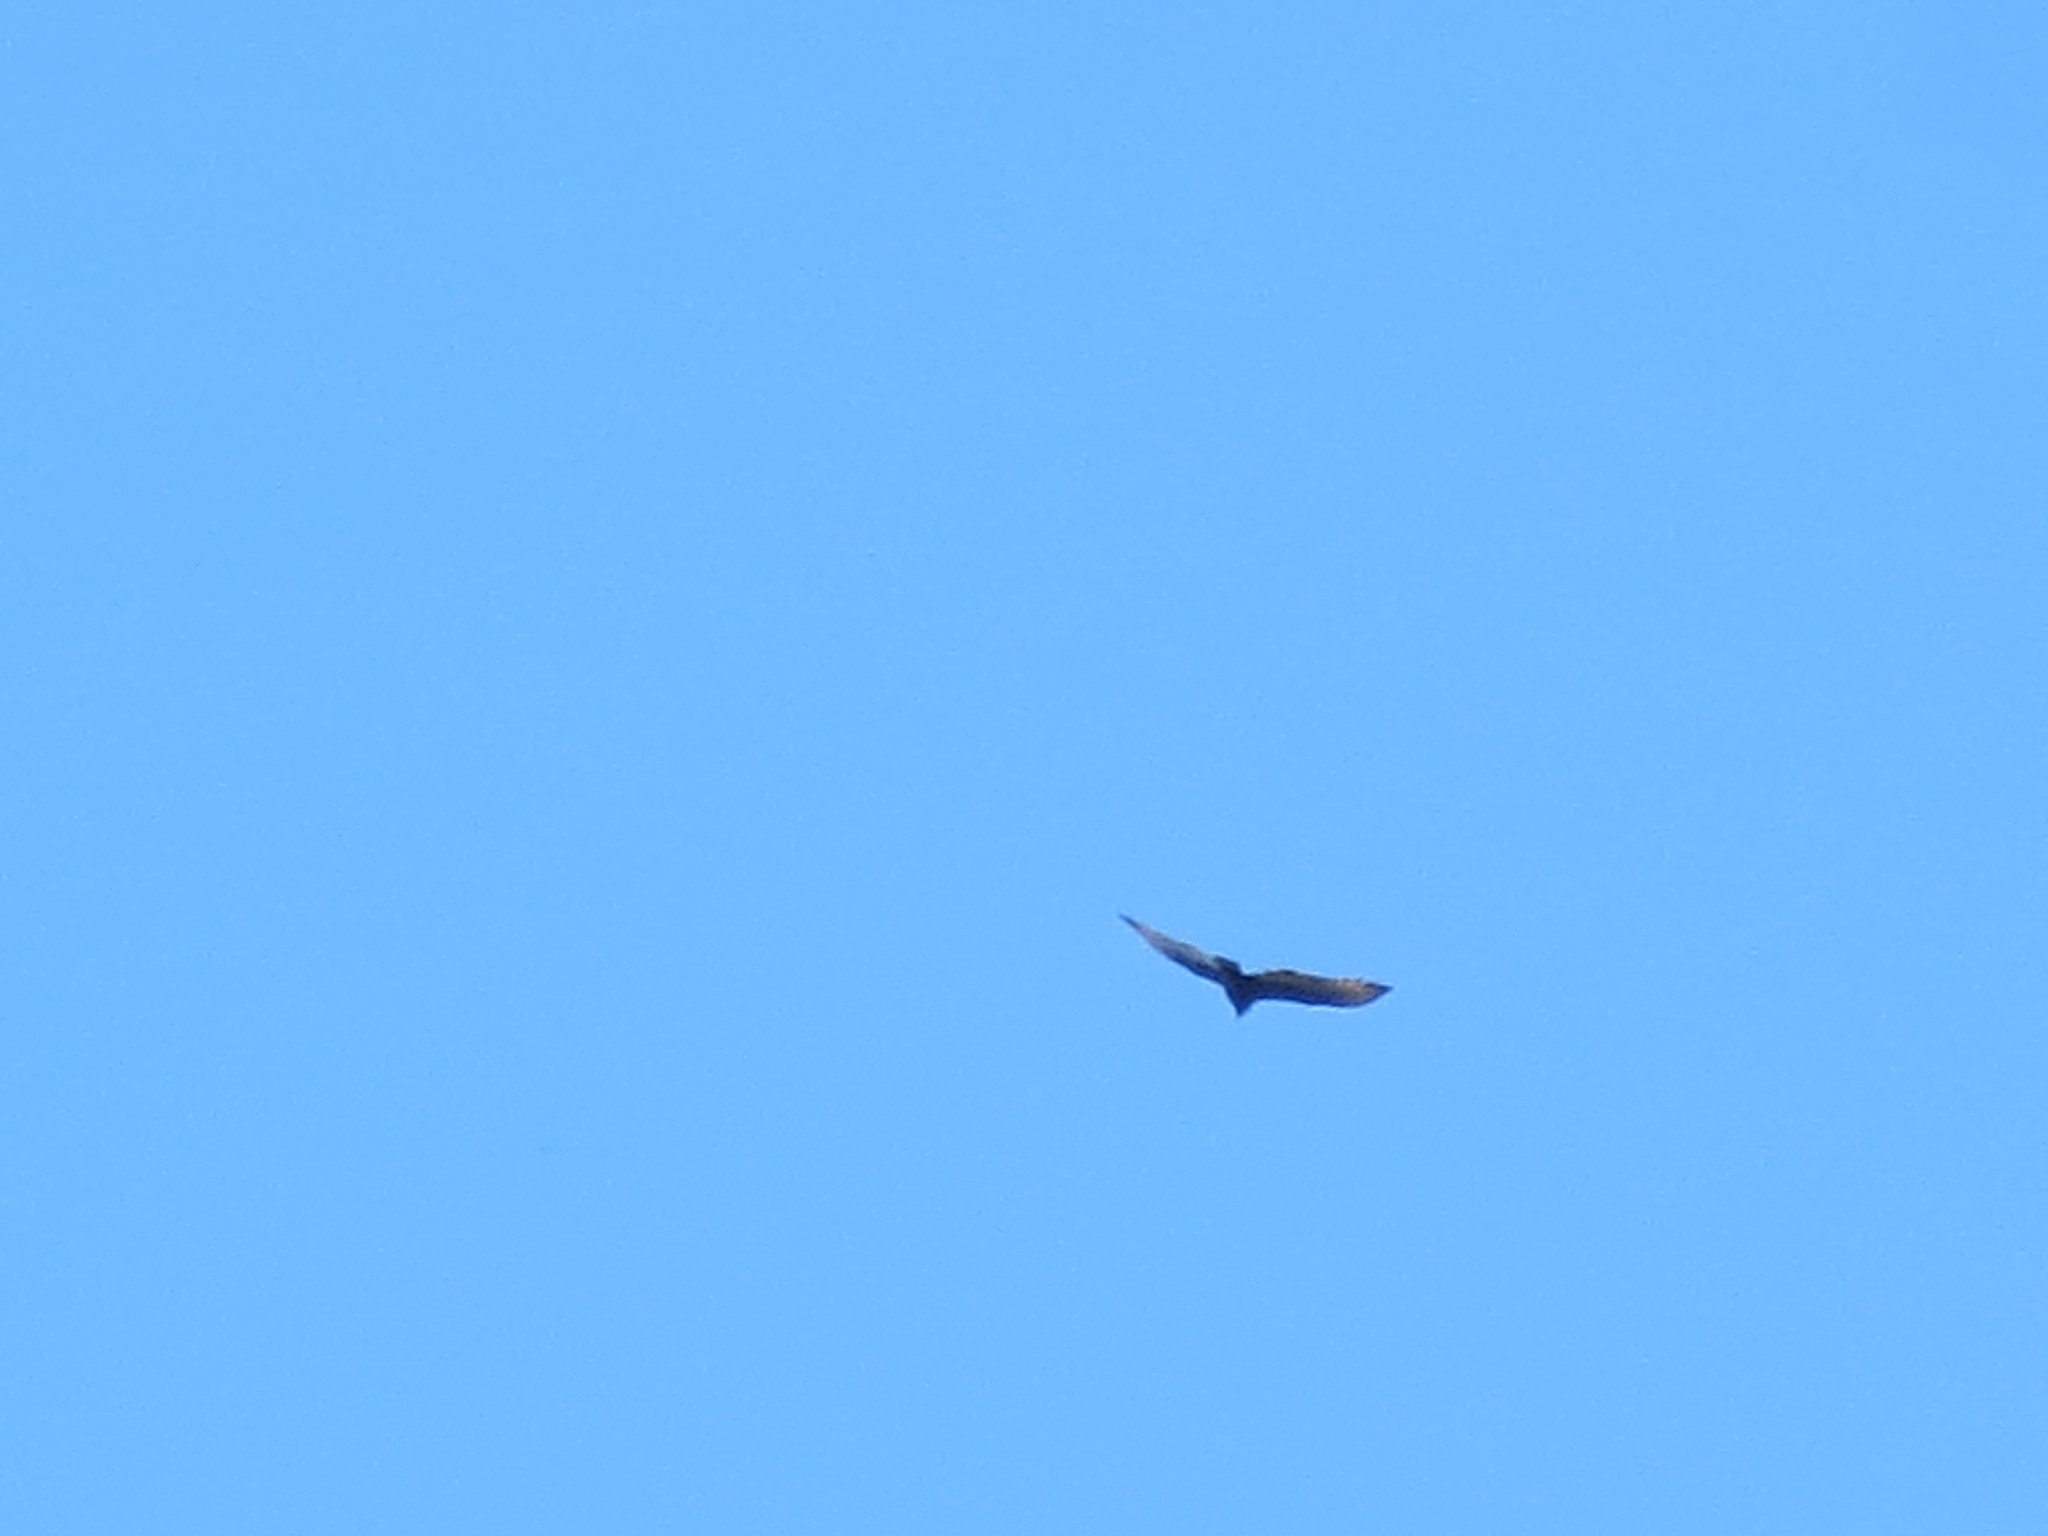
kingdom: Animalia
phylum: Chordata
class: Aves
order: Accipitriformes
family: Cathartidae
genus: Cathartes
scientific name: Cathartes aura
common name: Turkey vulture
